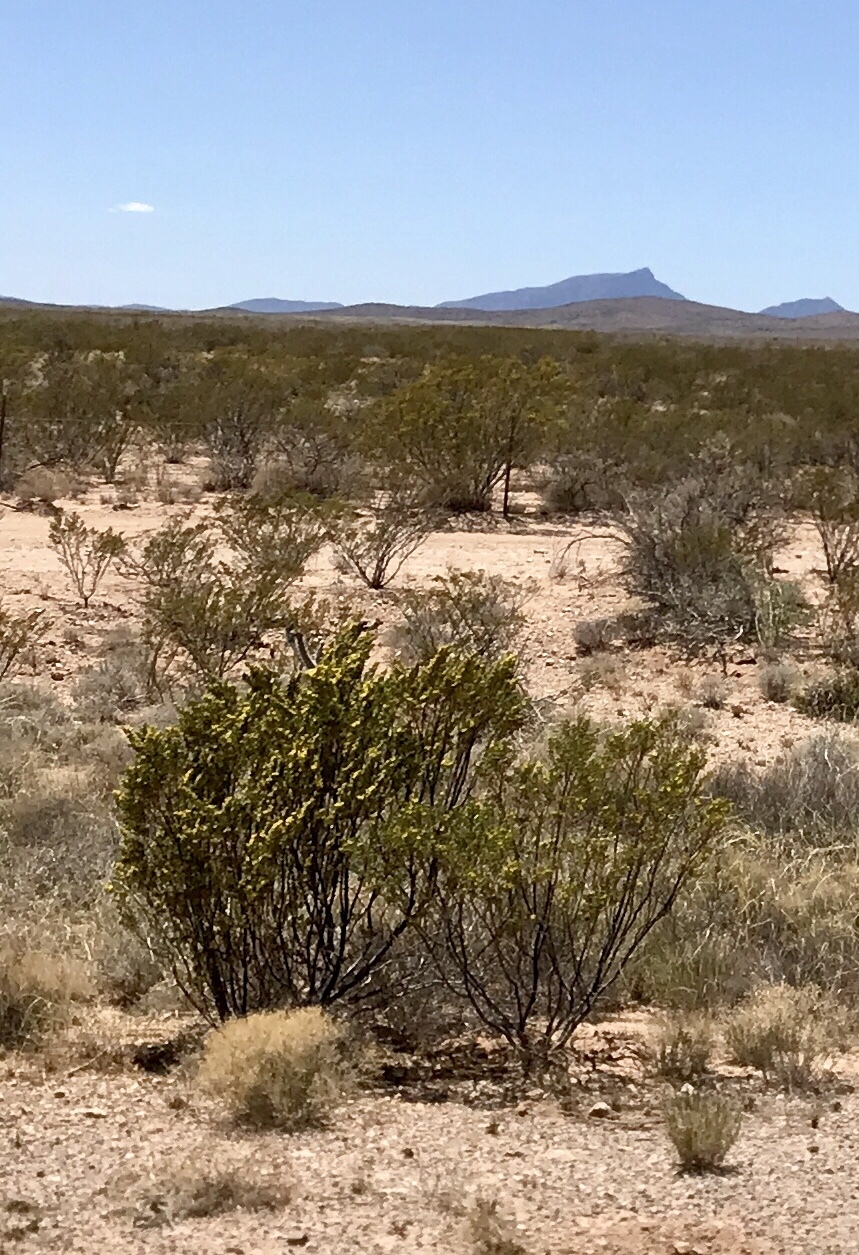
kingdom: Plantae
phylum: Tracheophyta
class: Magnoliopsida
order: Zygophyllales
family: Zygophyllaceae
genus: Larrea
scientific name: Larrea tridentata
